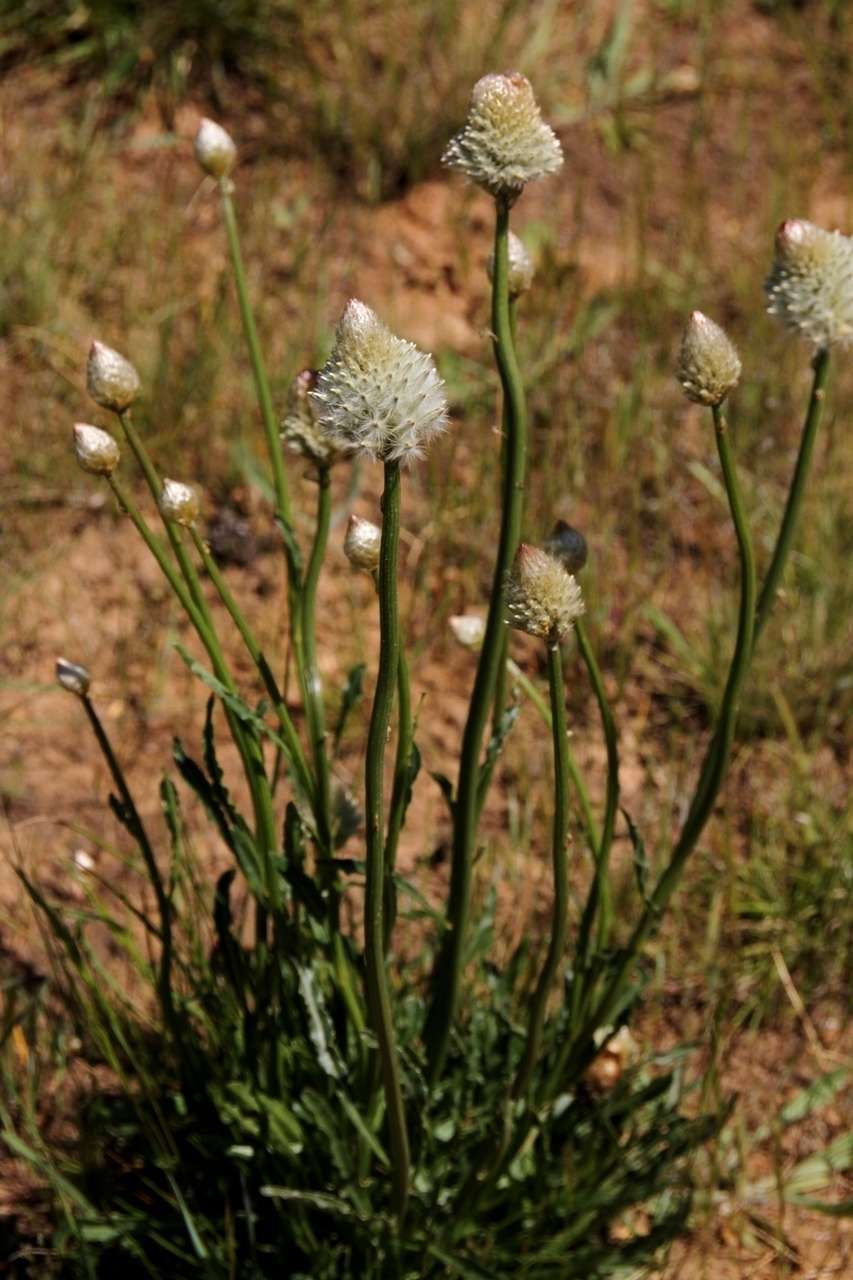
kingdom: Plantae
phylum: Tracheophyta
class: Magnoliopsida
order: Caryophyllales
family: Amaranthaceae
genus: Ptilotus
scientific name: Ptilotus macrocephalus
